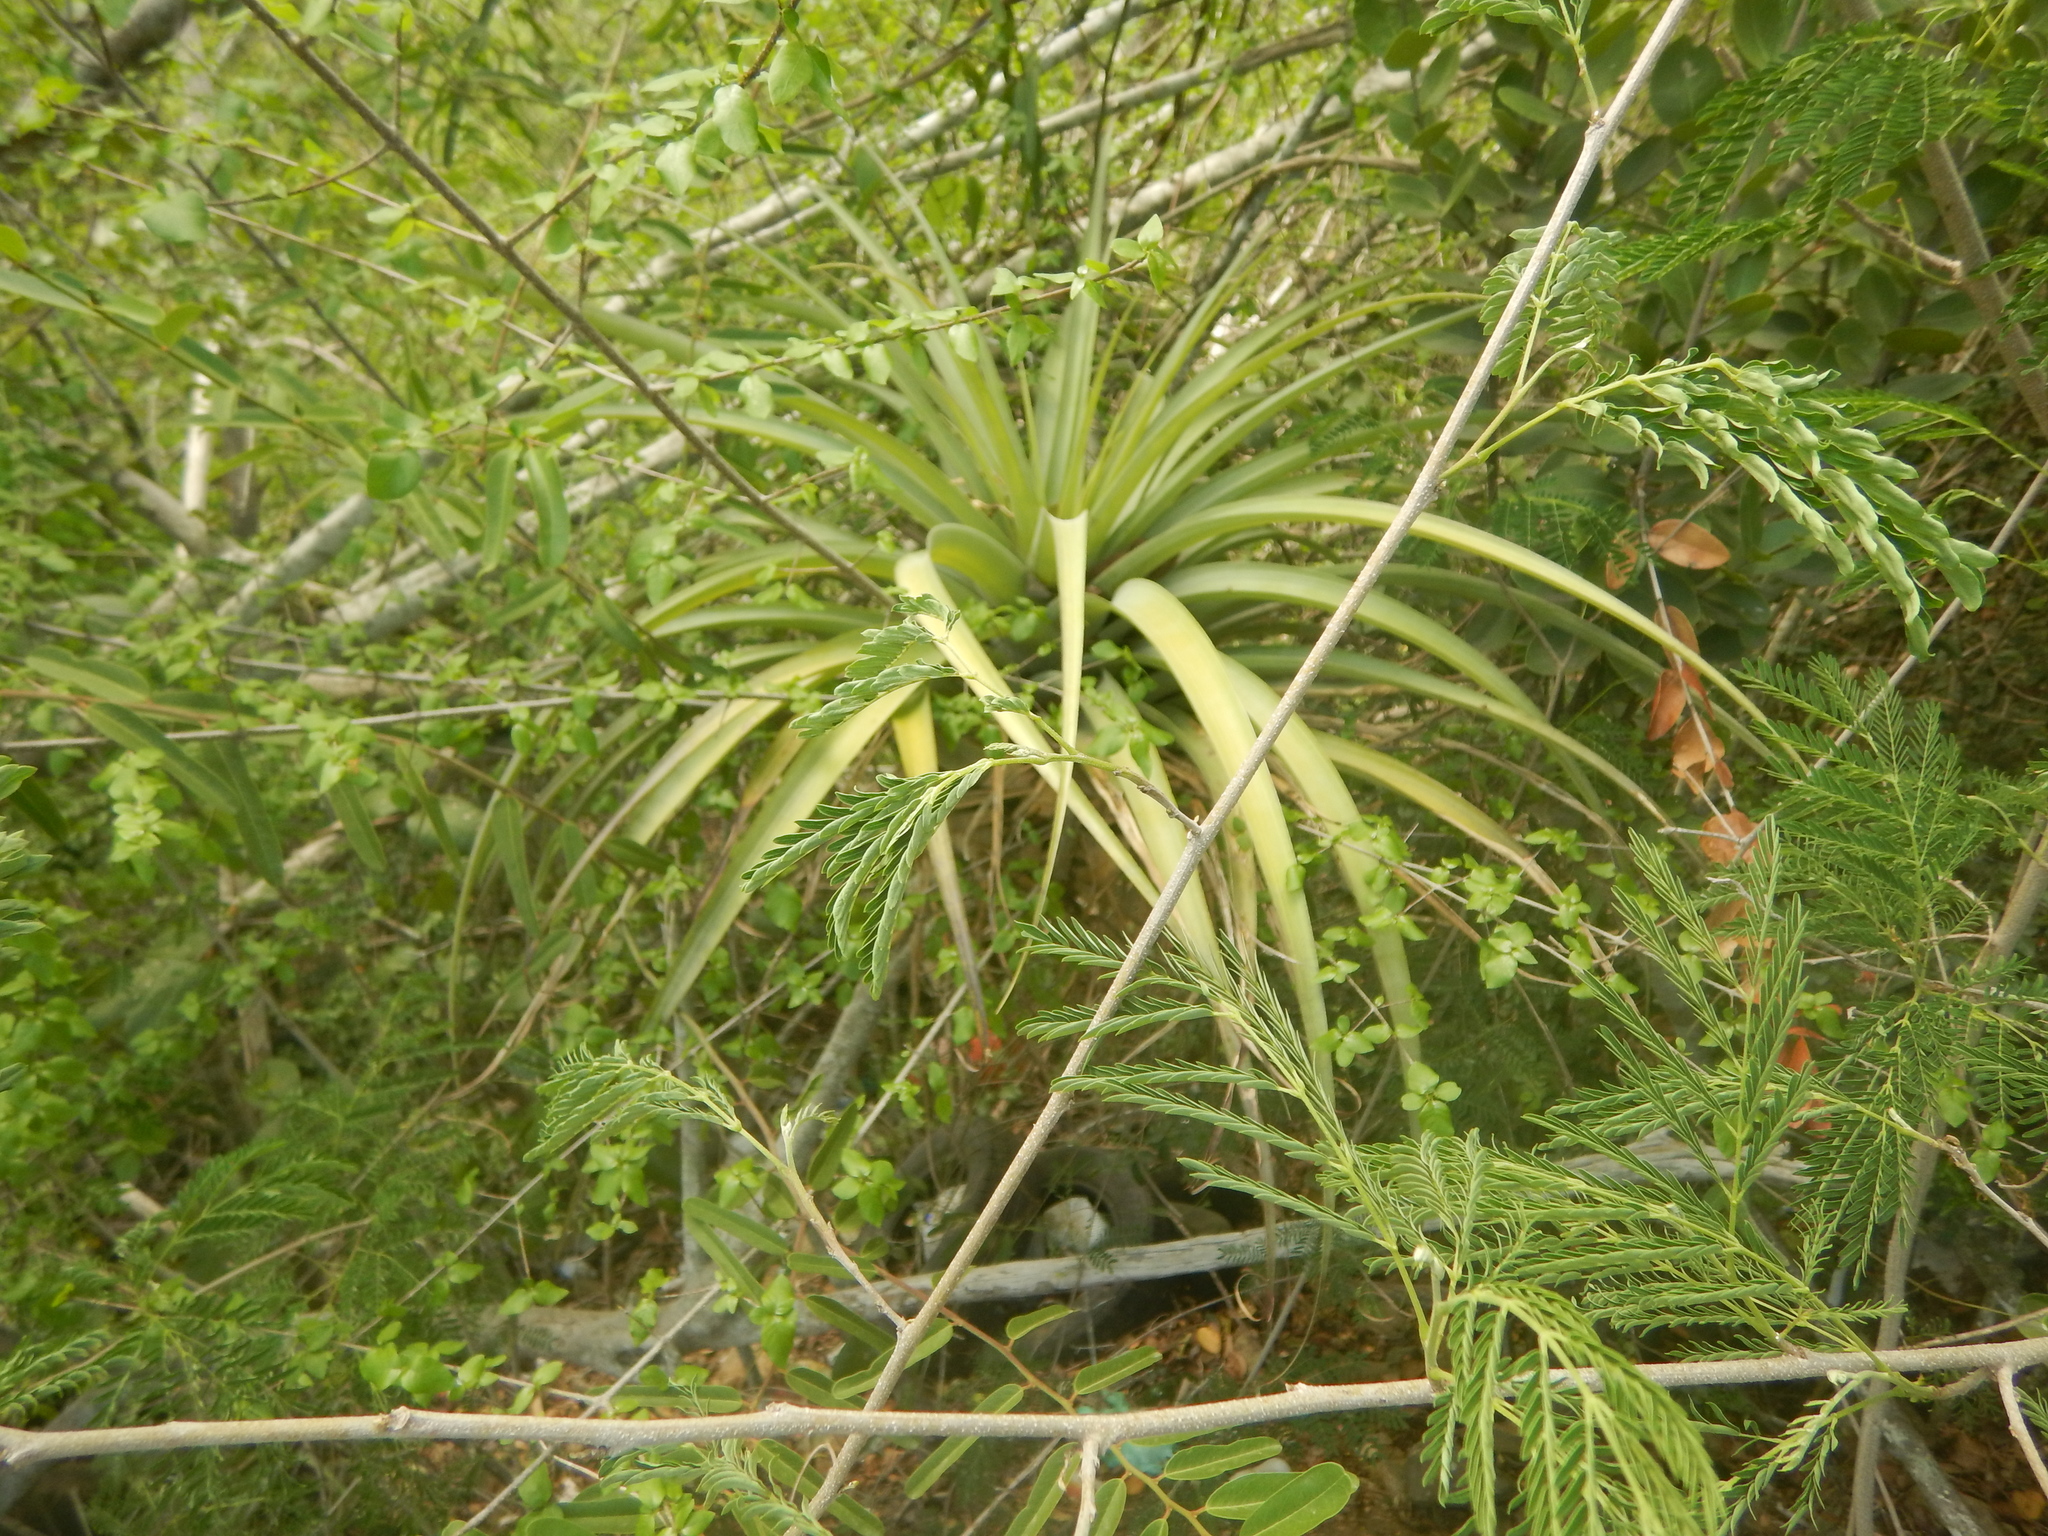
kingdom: Plantae
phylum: Tracheophyta
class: Liliopsida
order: Poales
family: Bromeliaceae
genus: Tillandsia
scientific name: Tillandsia utriculata
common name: Wild pine
